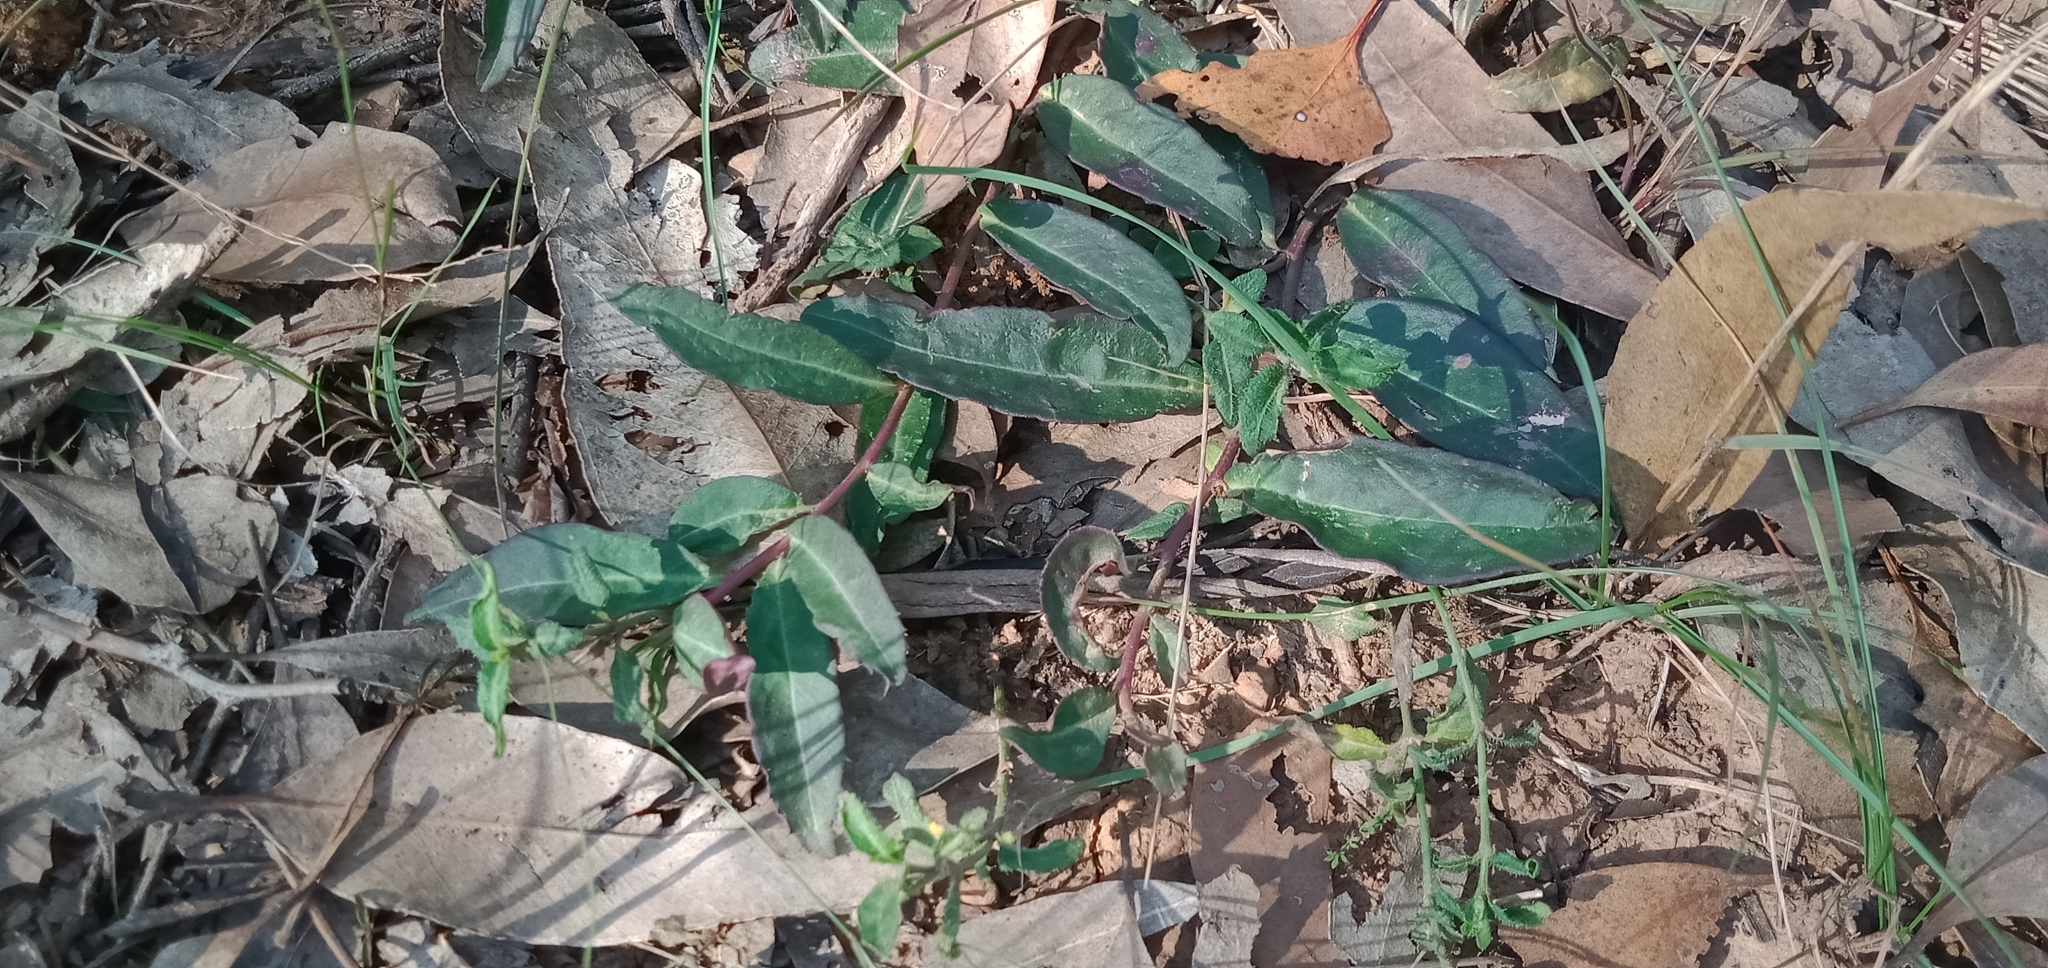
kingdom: Plantae
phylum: Tracheophyta
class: Magnoliopsida
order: Lamiales
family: Scrophulariaceae
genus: Eremophila
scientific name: Eremophila debilis
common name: Winter-apple
